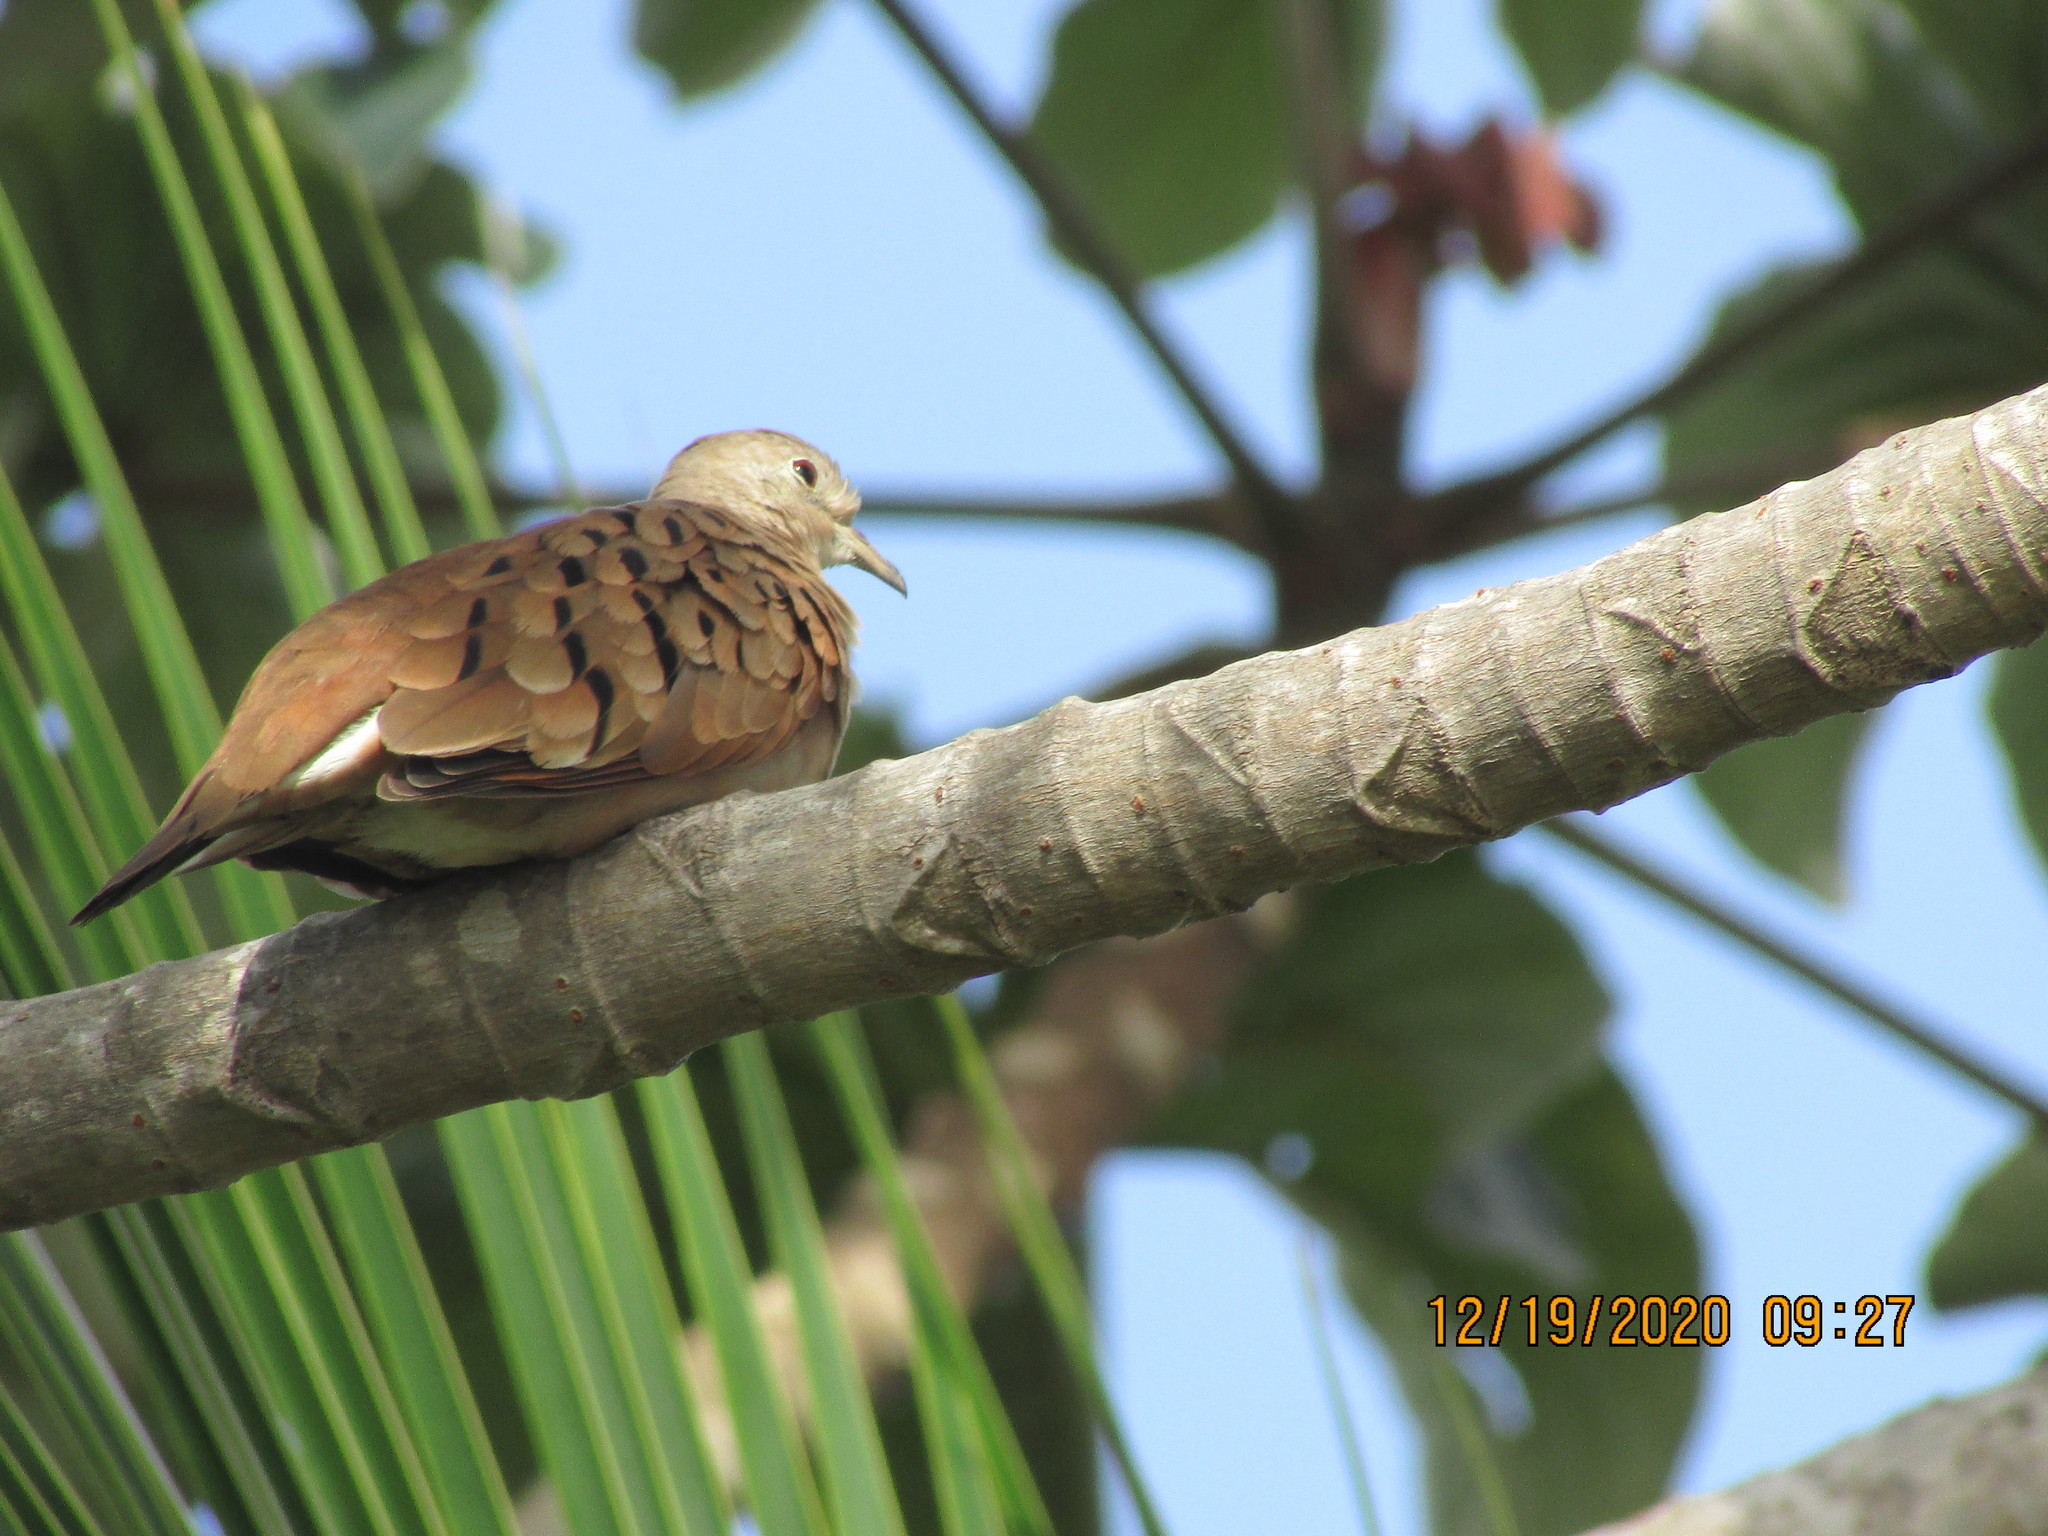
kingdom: Animalia
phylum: Chordata
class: Aves
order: Columbiformes
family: Columbidae
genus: Columbina
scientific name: Columbina talpacoti
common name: Ruddy ground dove
